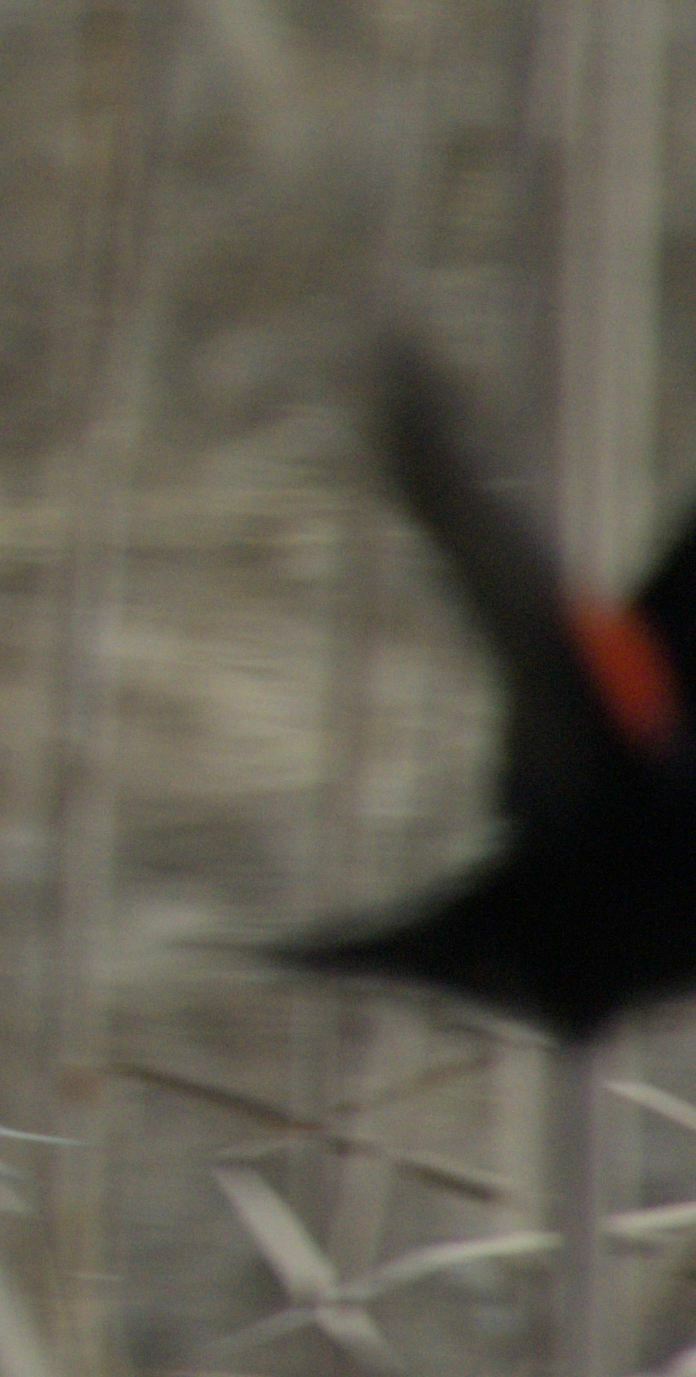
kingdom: Animalia
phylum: Chordata
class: Aves
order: Passeriformes
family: Icteridae
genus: Agelaius
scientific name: Agelaius phoeniceus
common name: Red-winged blackbird
